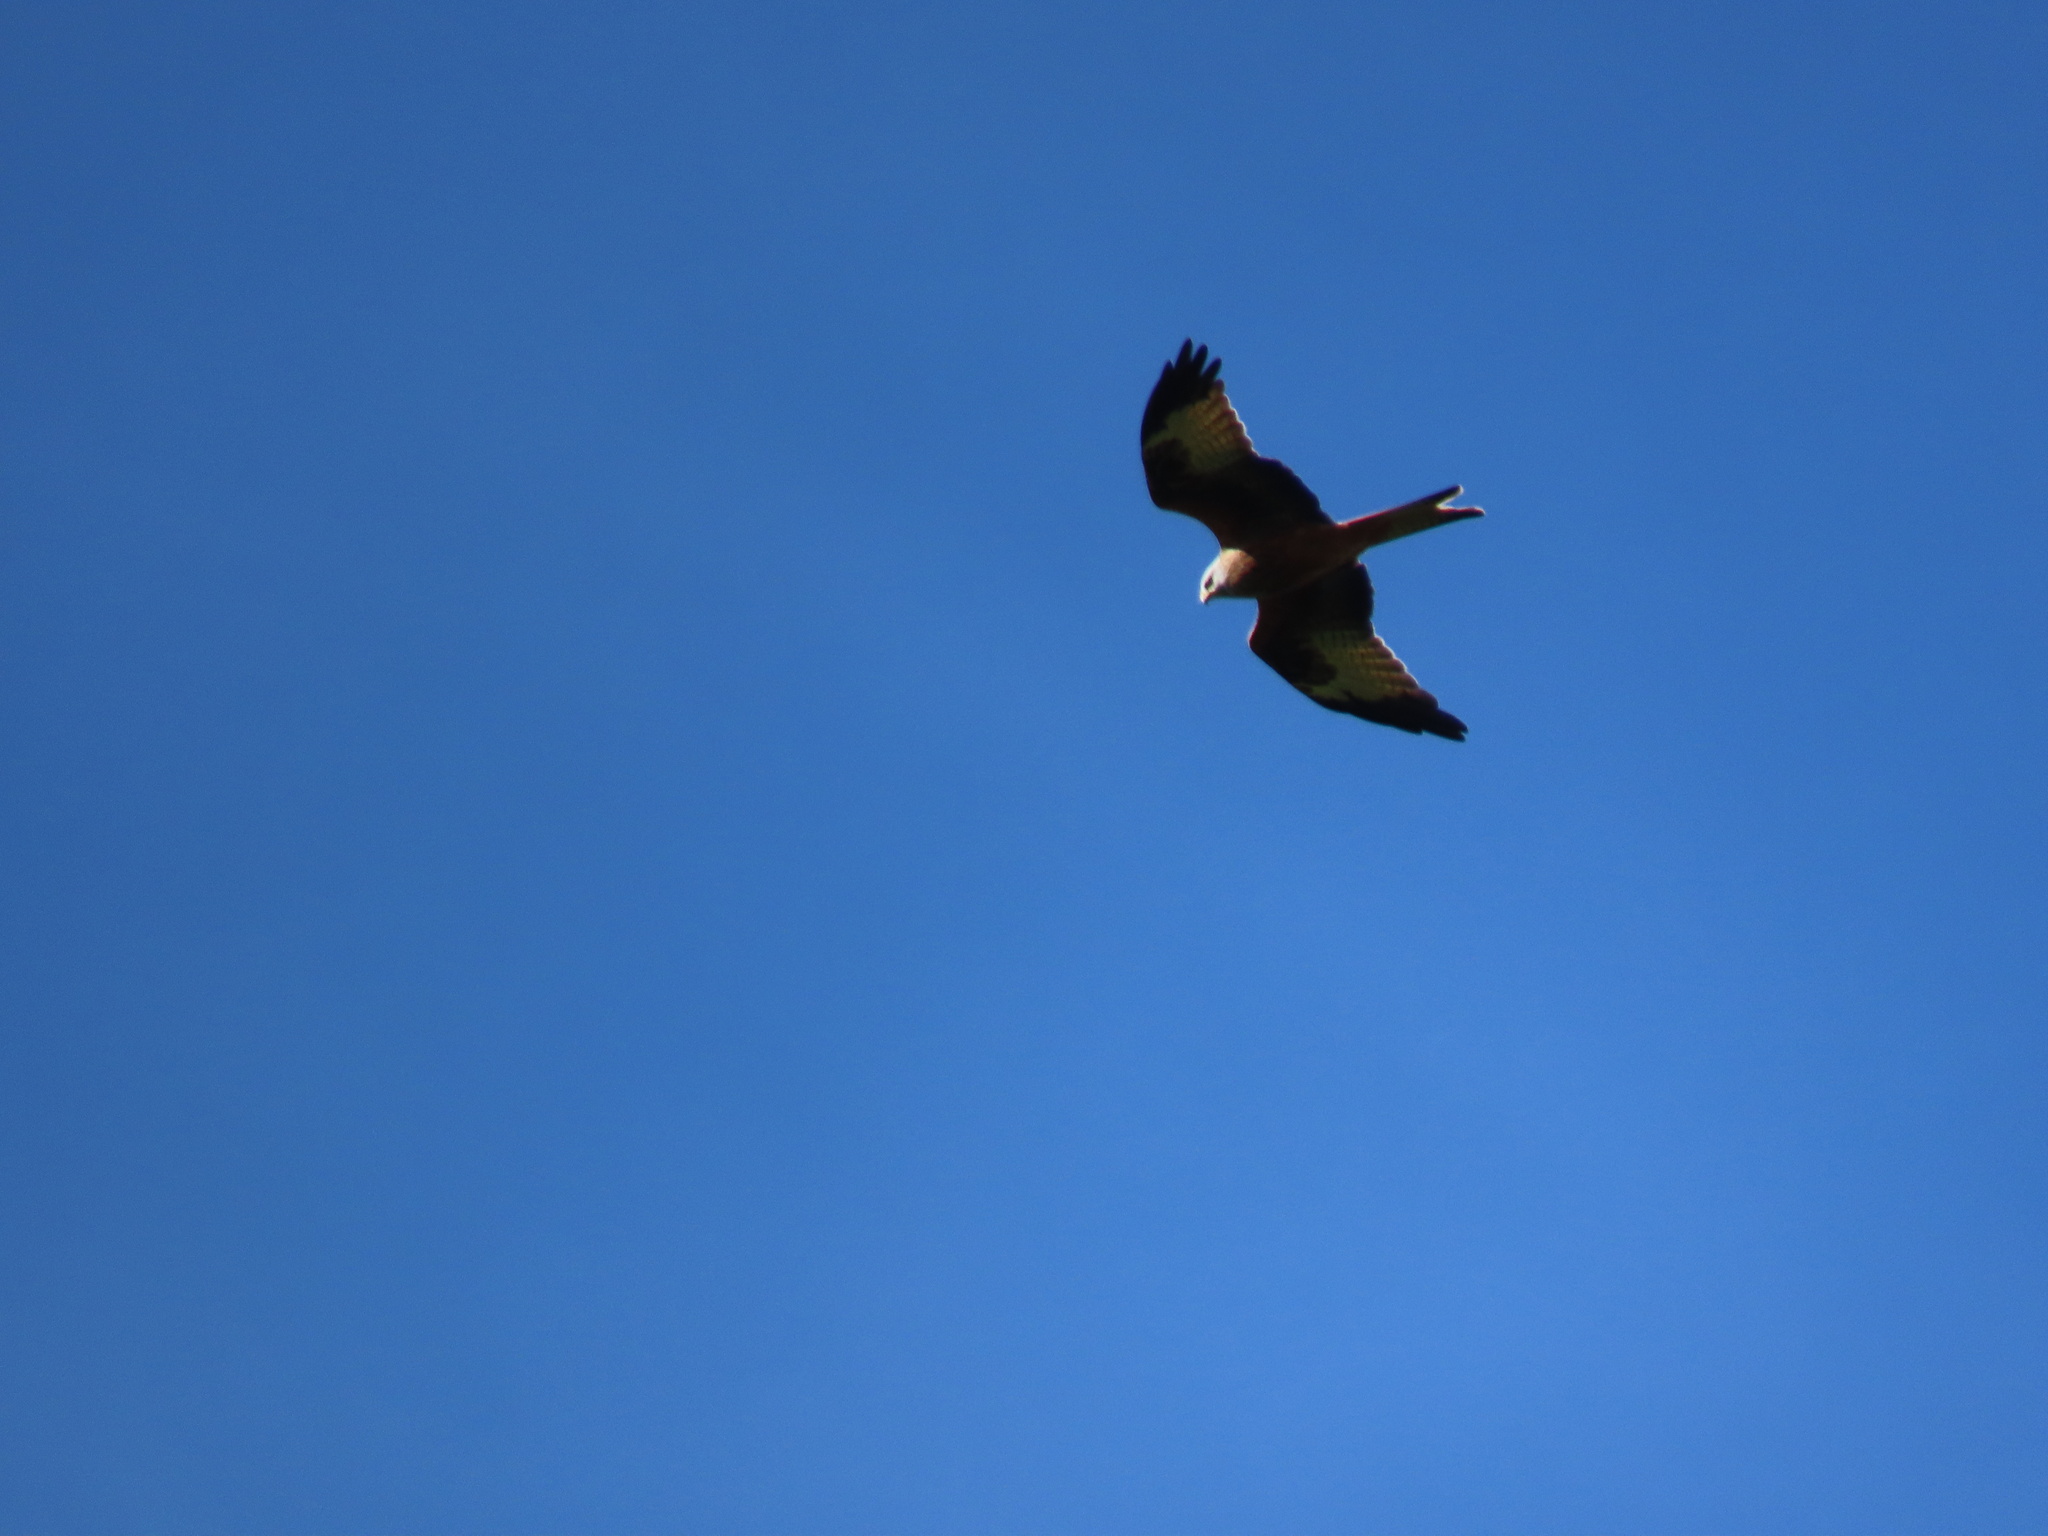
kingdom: Animalia
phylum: Chordata
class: Aves
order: Accipitriformes
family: Accipitridae
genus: Milvus
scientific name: Milvus milvus
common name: Red kite
